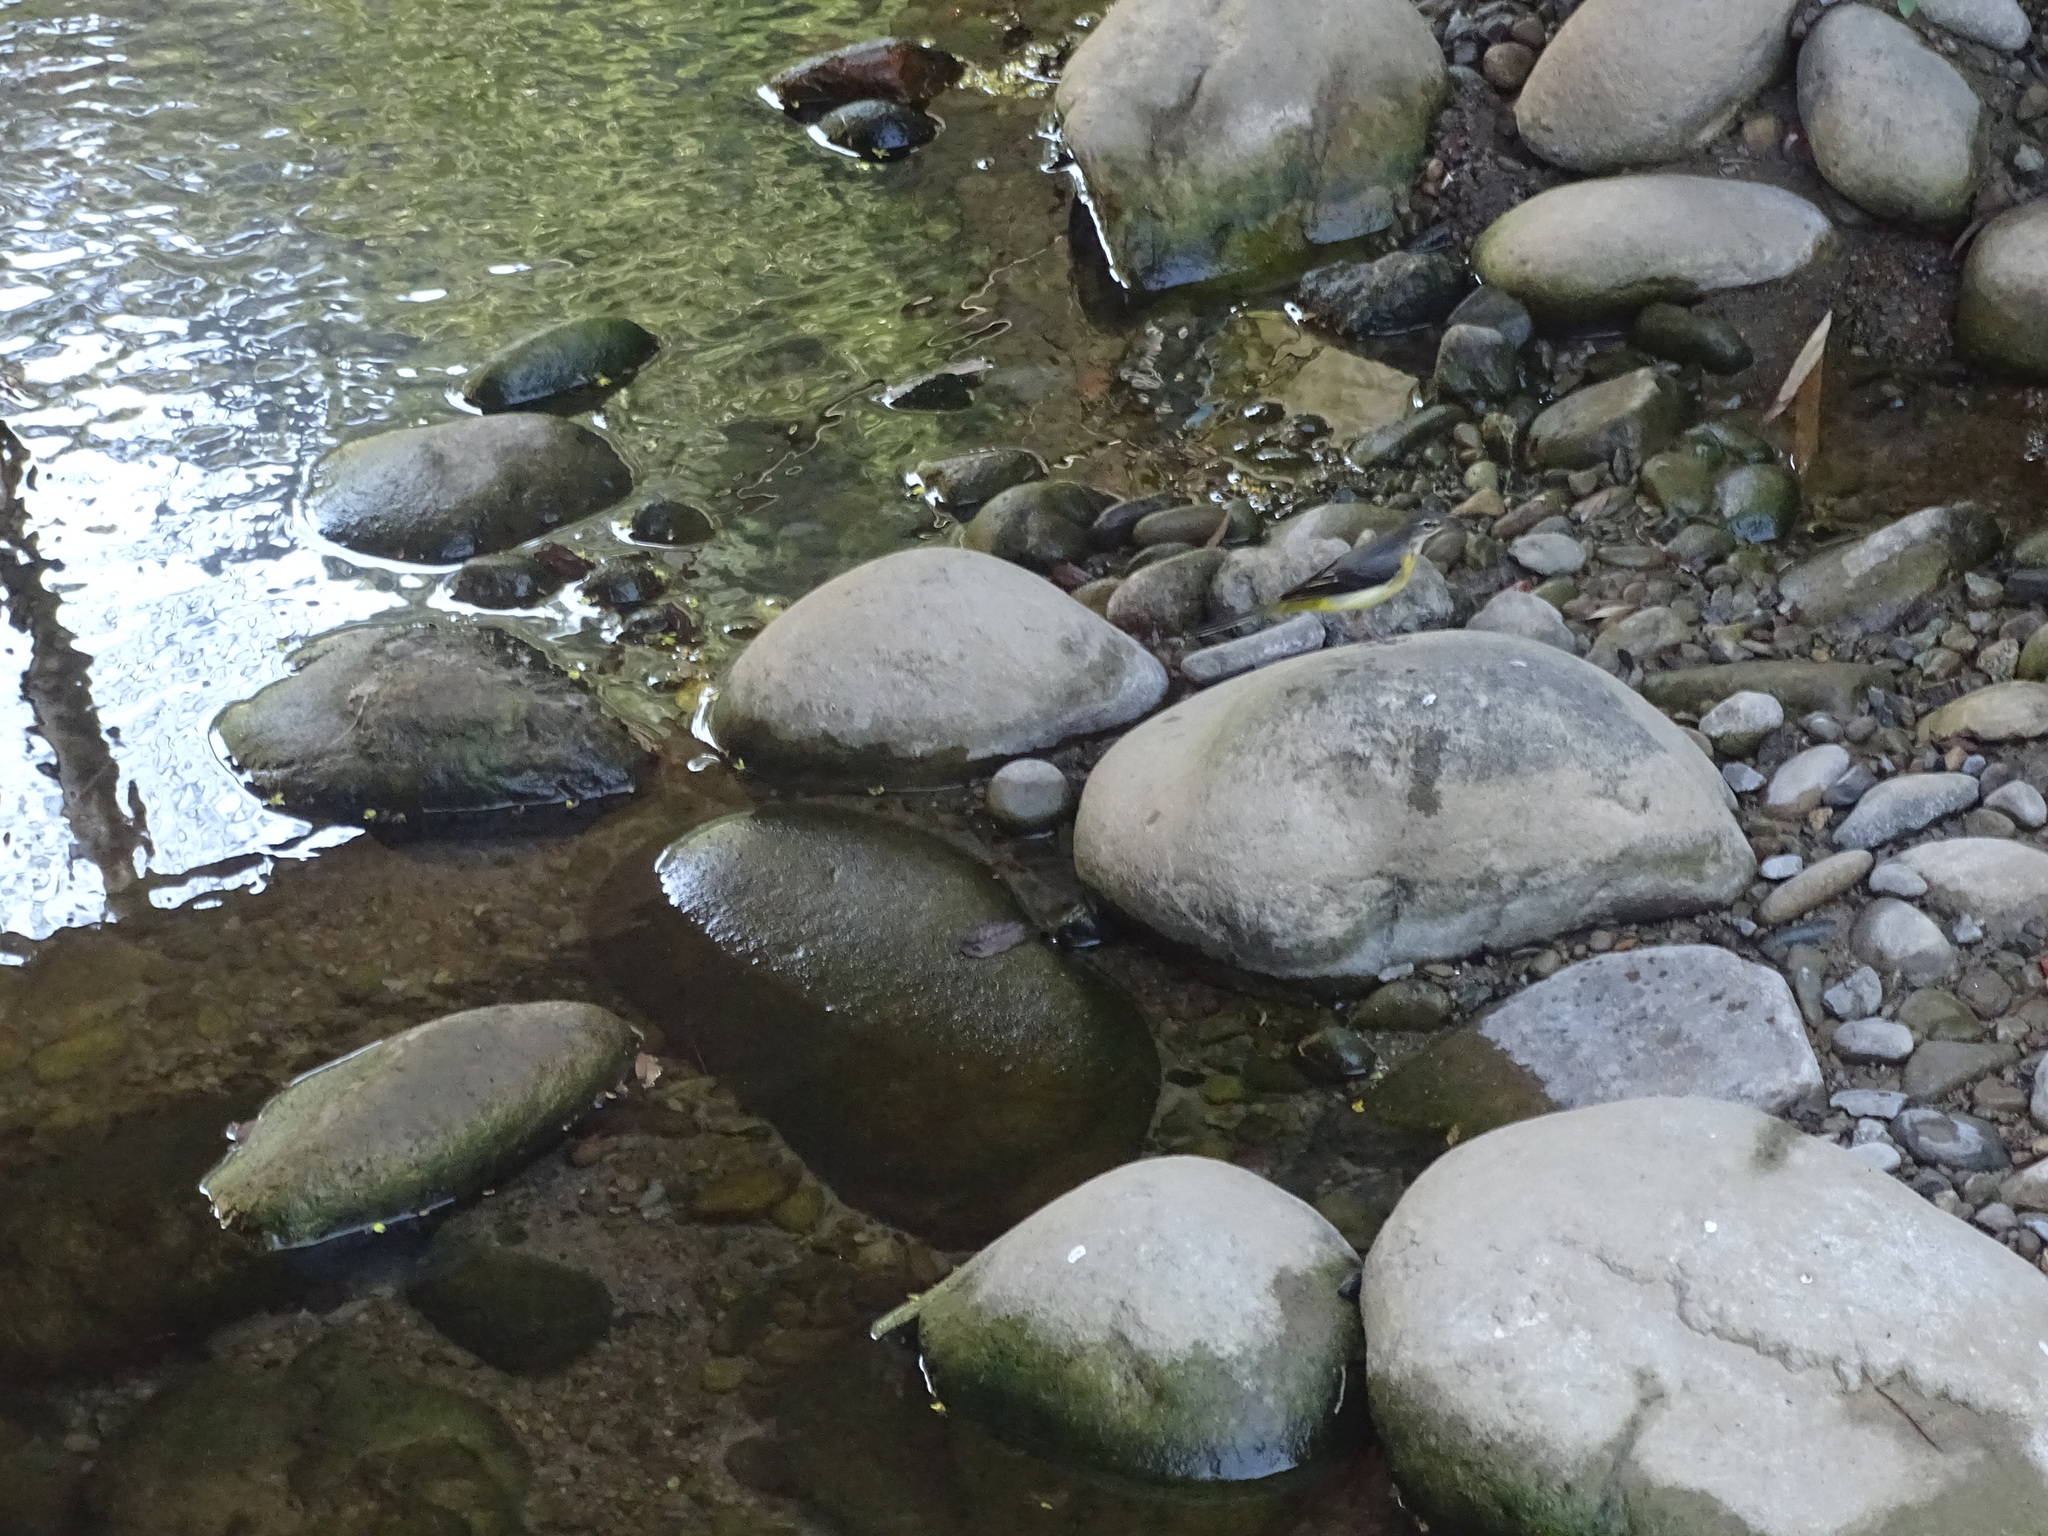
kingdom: Animalia
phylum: Chordata
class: Aves
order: Passeriformes
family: Motacillidae
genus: Motacilla
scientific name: Motacilla cinerea
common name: Grey wagtail
